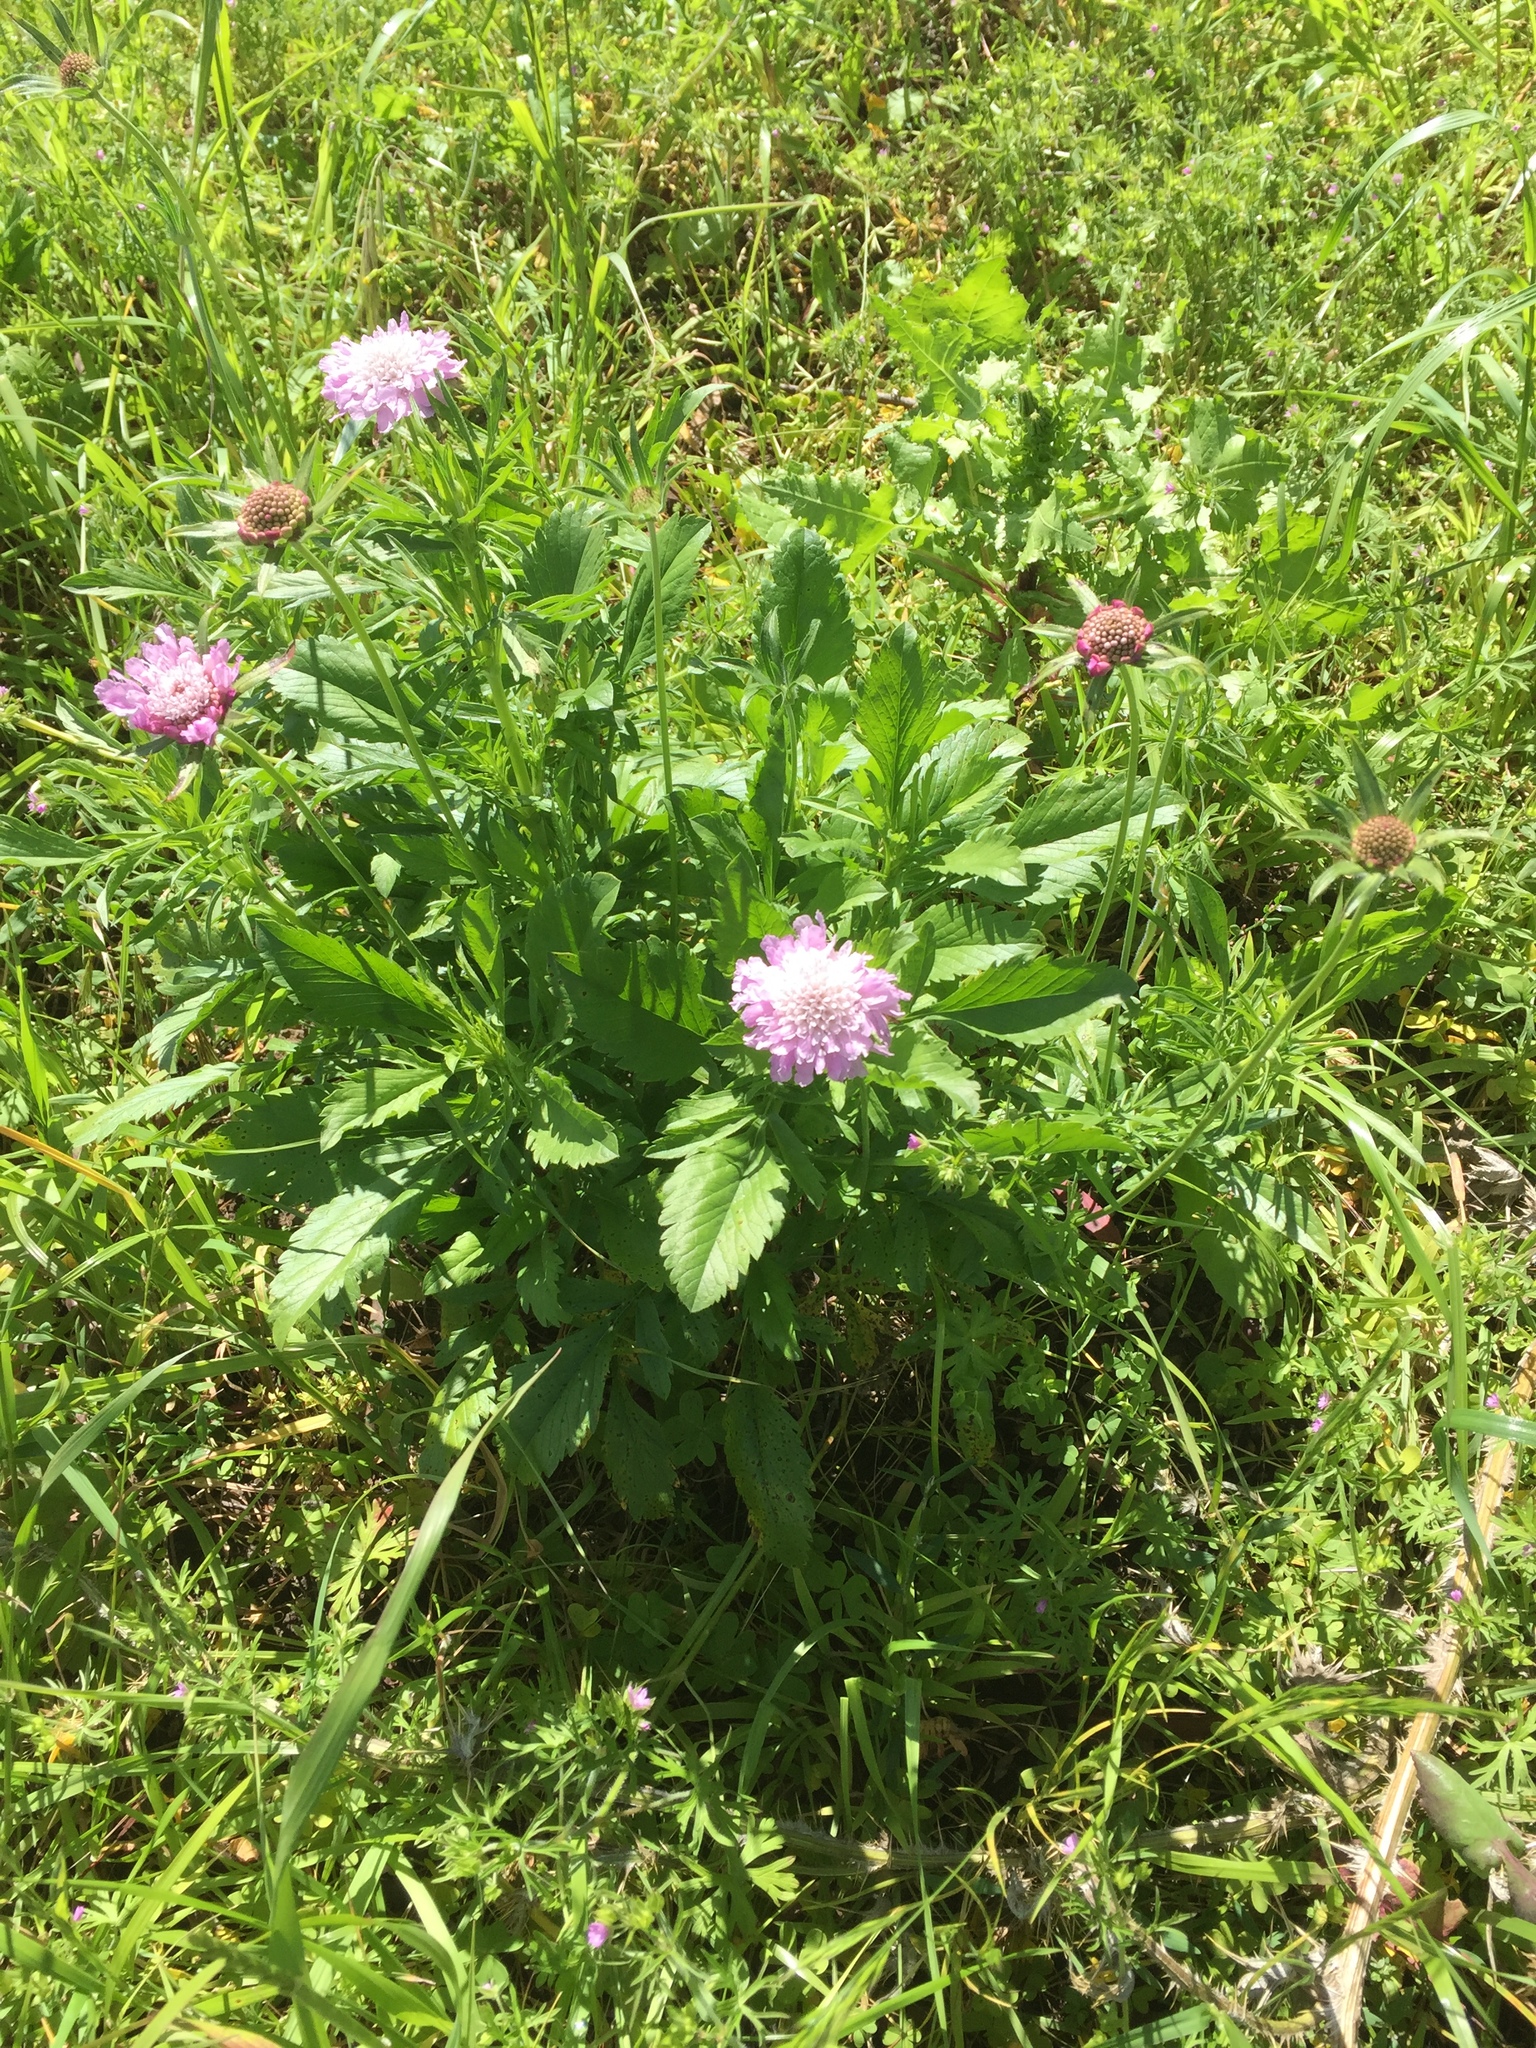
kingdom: Plantae
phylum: Tracheophyta
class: Magnoliopsida
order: Dipsacales
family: Caprifoliaceae
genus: Sixalix
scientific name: Sixalix atropurpurea
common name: Sweet scabious
